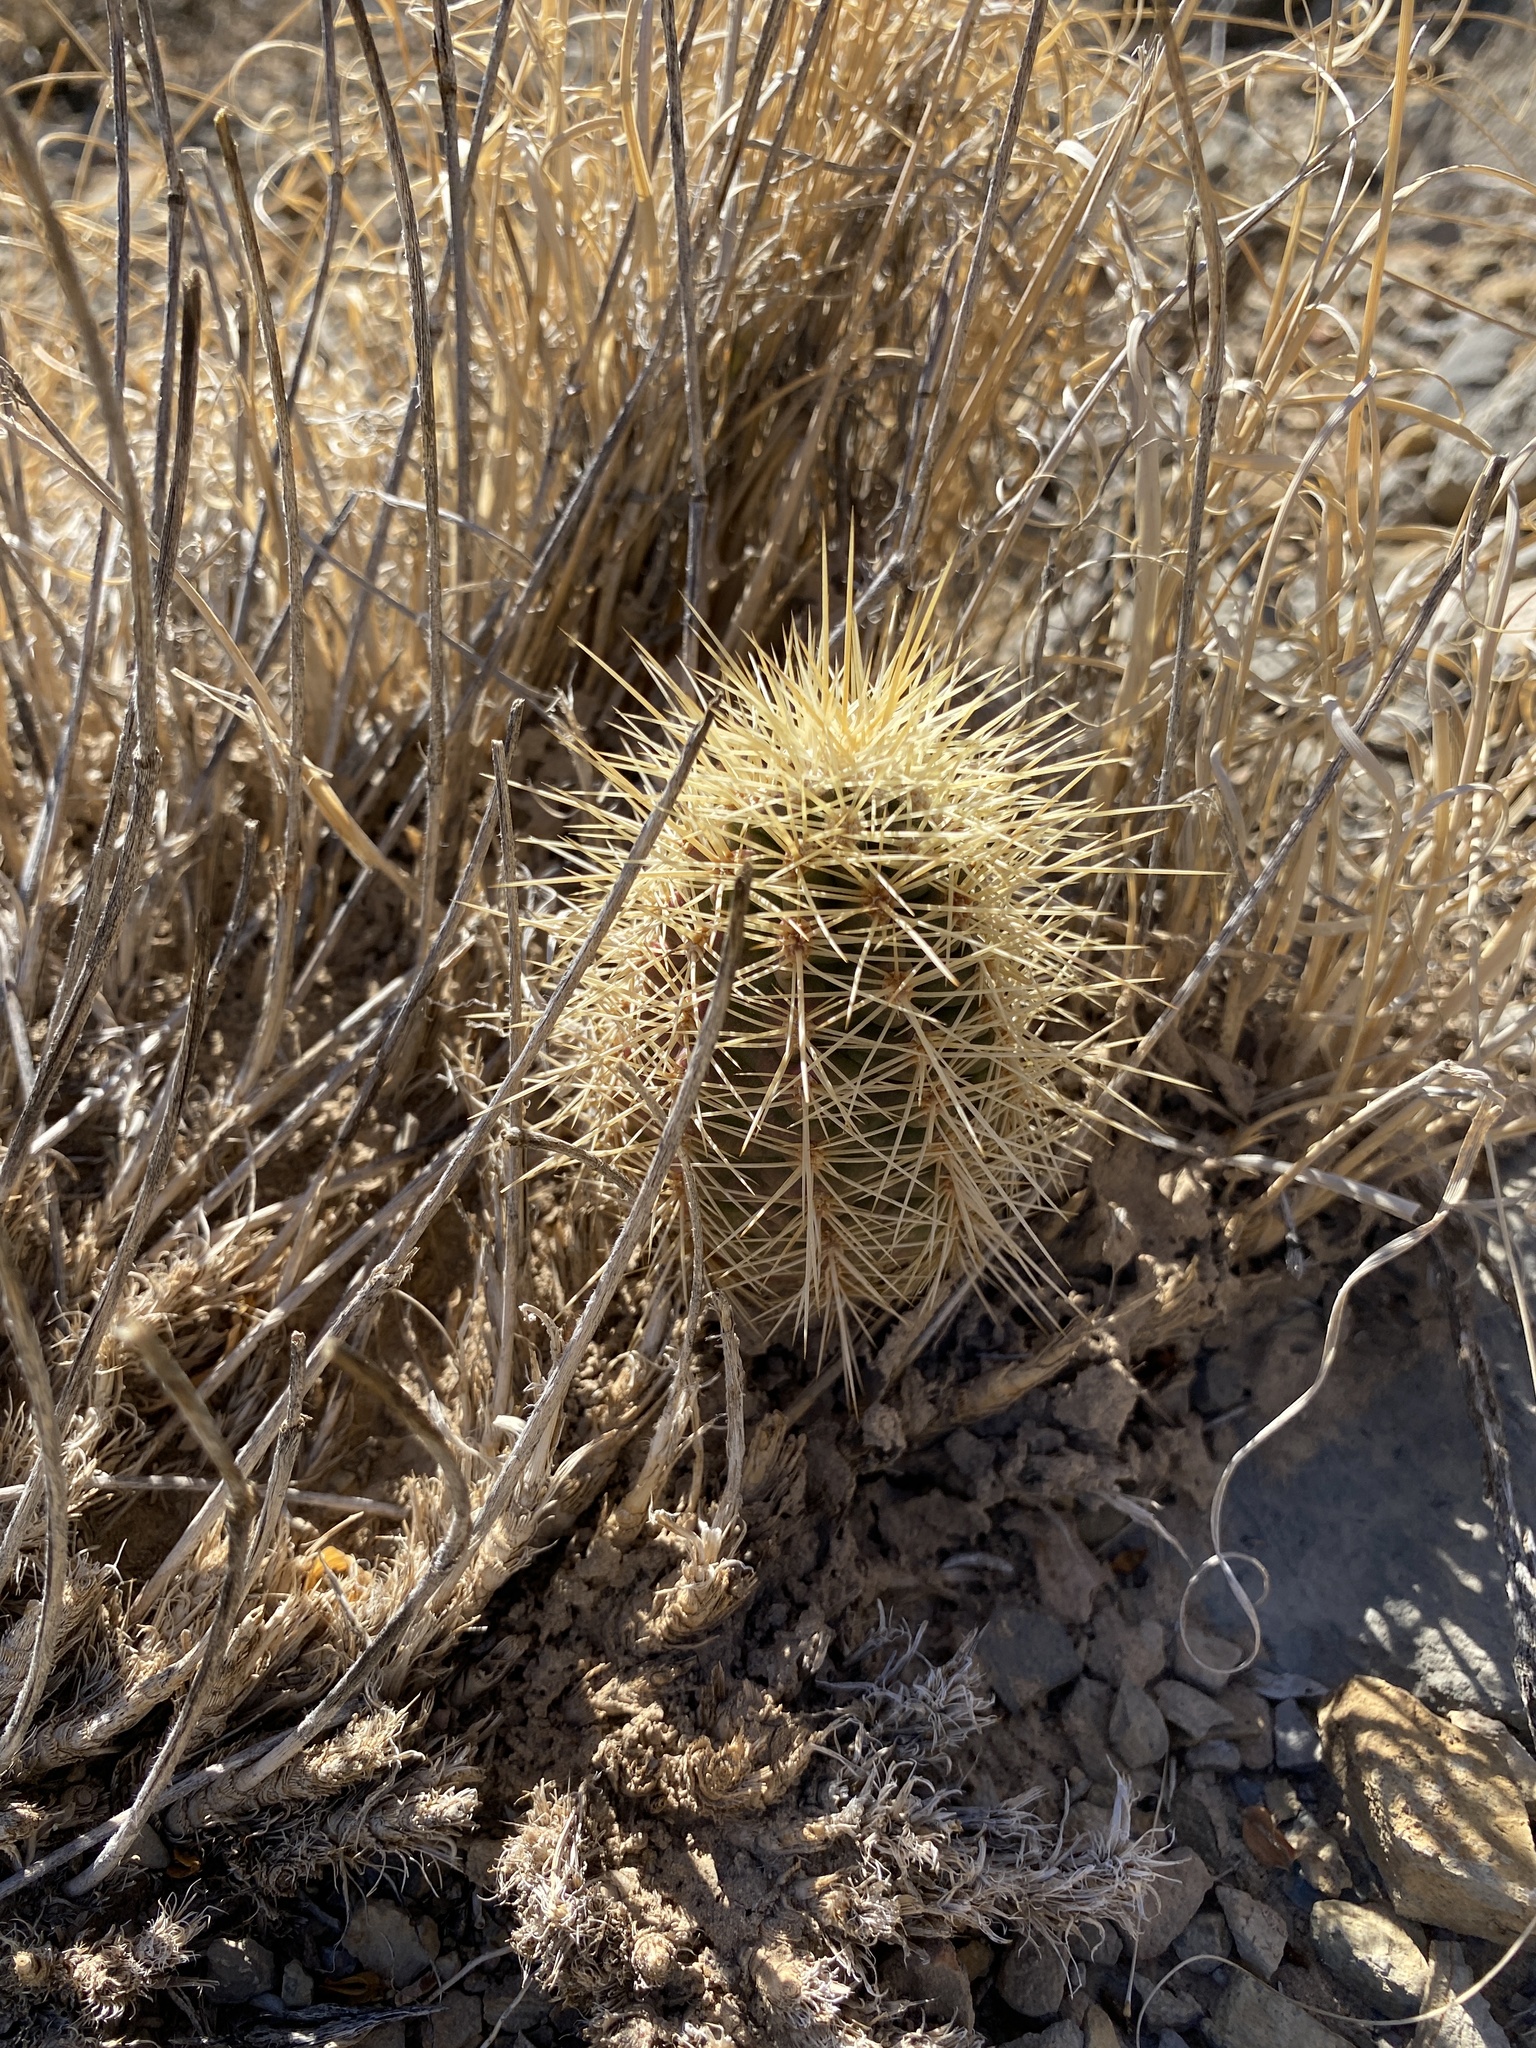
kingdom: Plantae
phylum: Tracheophyta
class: Magnoliopsida
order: Caryophyllales
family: Cactaceae
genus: Echinocereus
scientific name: Echinocereus coccineus
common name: Scarlet hedgehog cactus
